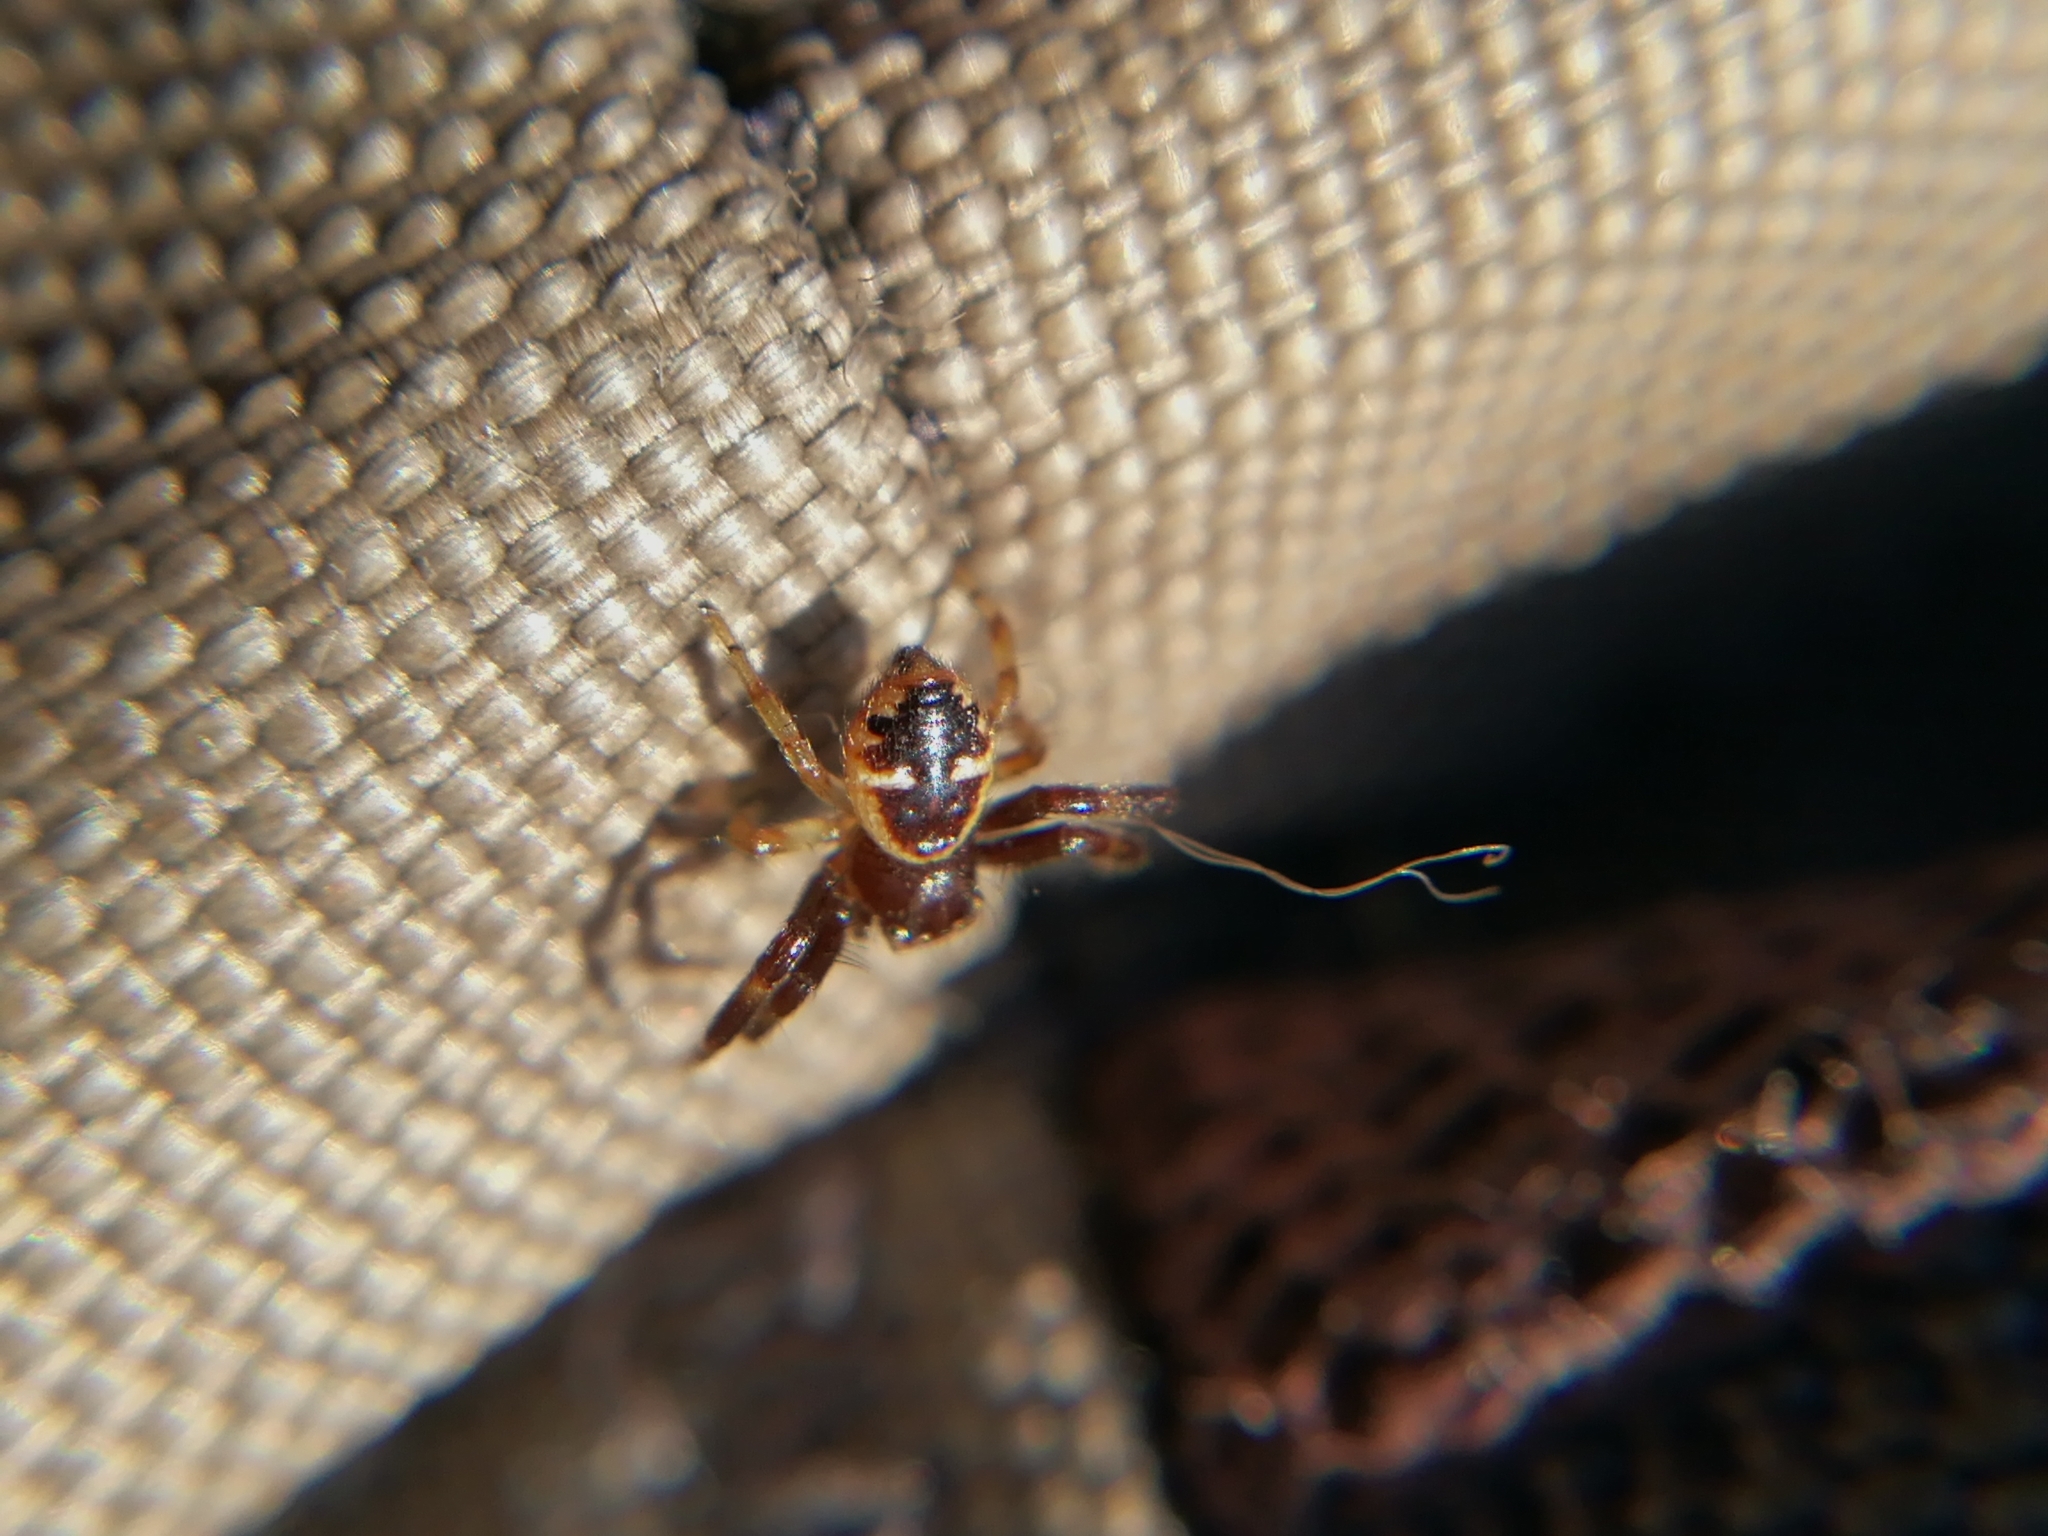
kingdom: Animalia
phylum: Arthropoda
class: Arachnida
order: Araneae
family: Thomisidae
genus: Synema
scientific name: Synema globosum
